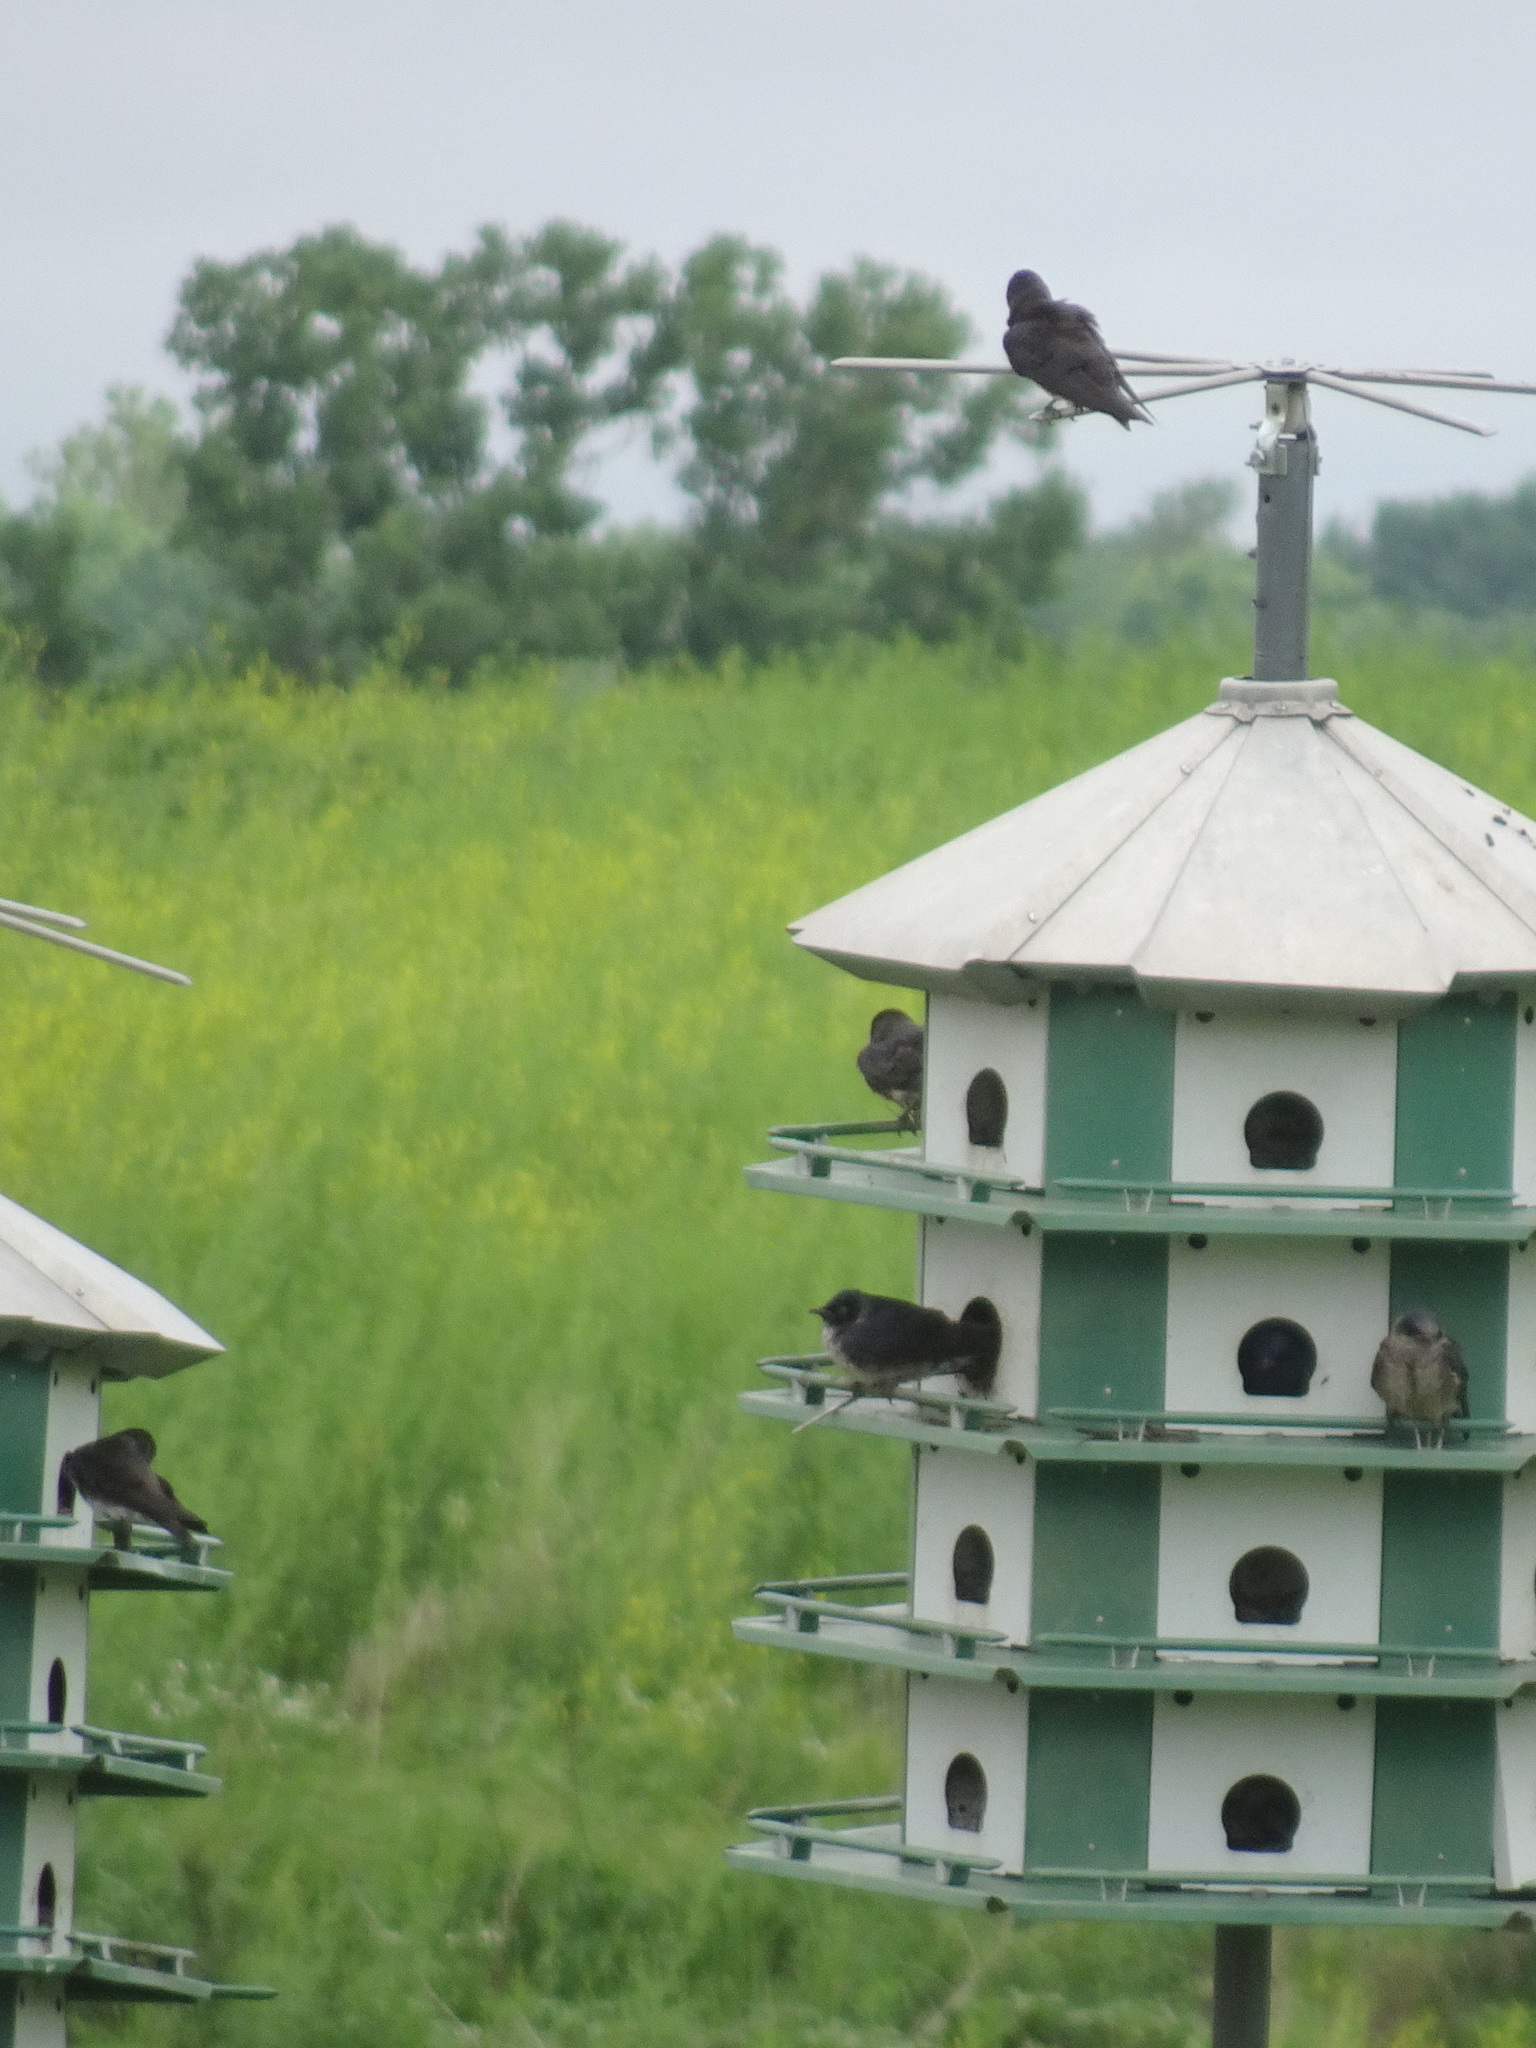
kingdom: Animalia
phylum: Chordata
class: Aves
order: Passeriformes
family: Hirundinidae
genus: Progne
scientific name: Progne subis
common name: Purple martin
